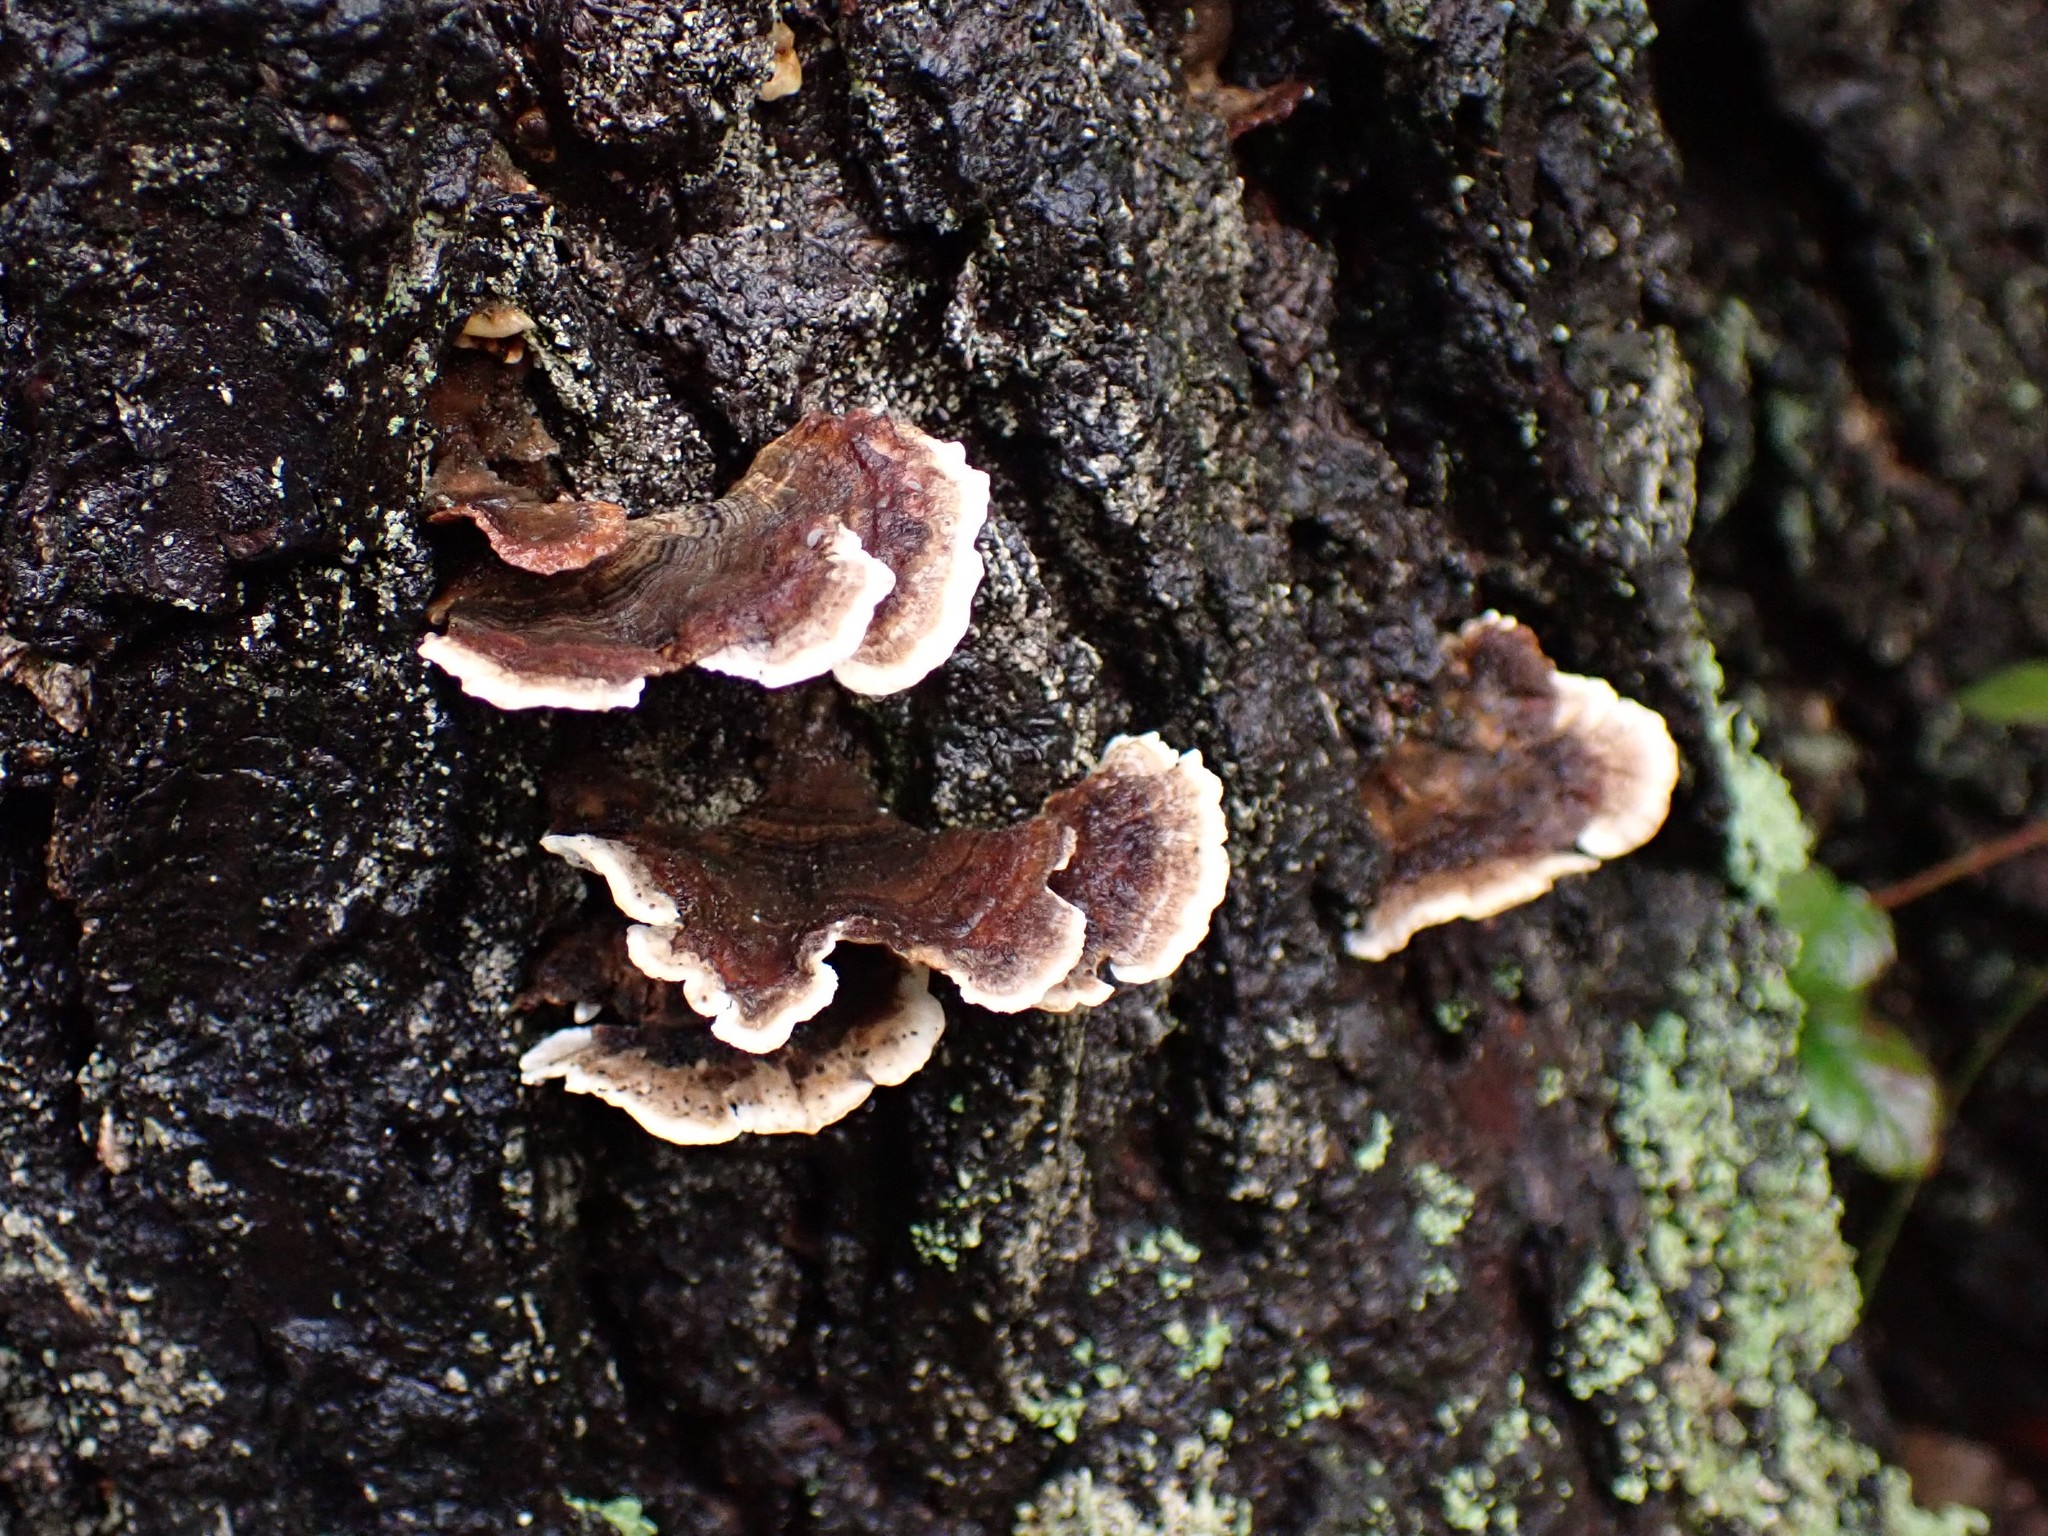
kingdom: Fungi
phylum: Basidiomycota
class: Agaricomycetes
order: Polyporales
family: Polyporaceae
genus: Trametes
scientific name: Trametes versicolor
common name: Turkeytail
